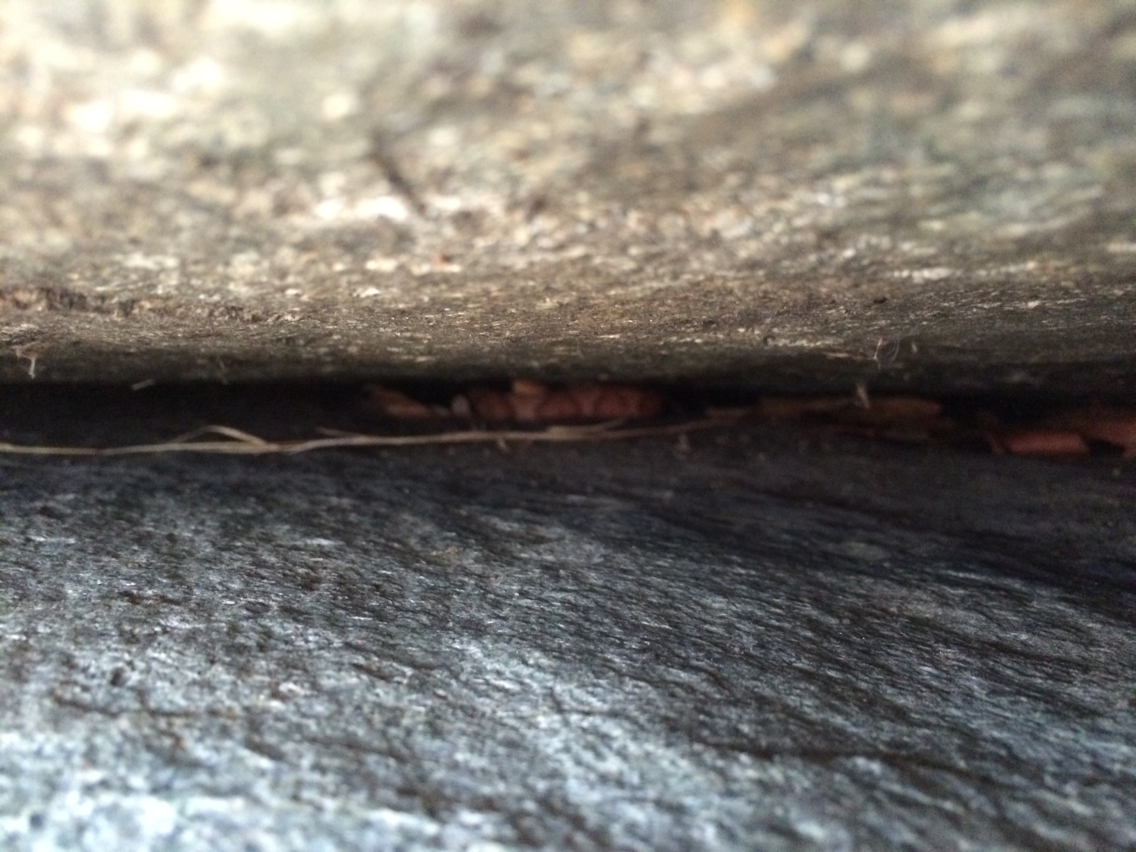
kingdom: Animalia
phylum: Chordata
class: Squamata
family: Viperidae
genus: Agkistrodon
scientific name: Agkistrodon contortrix
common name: Northern copperhead
